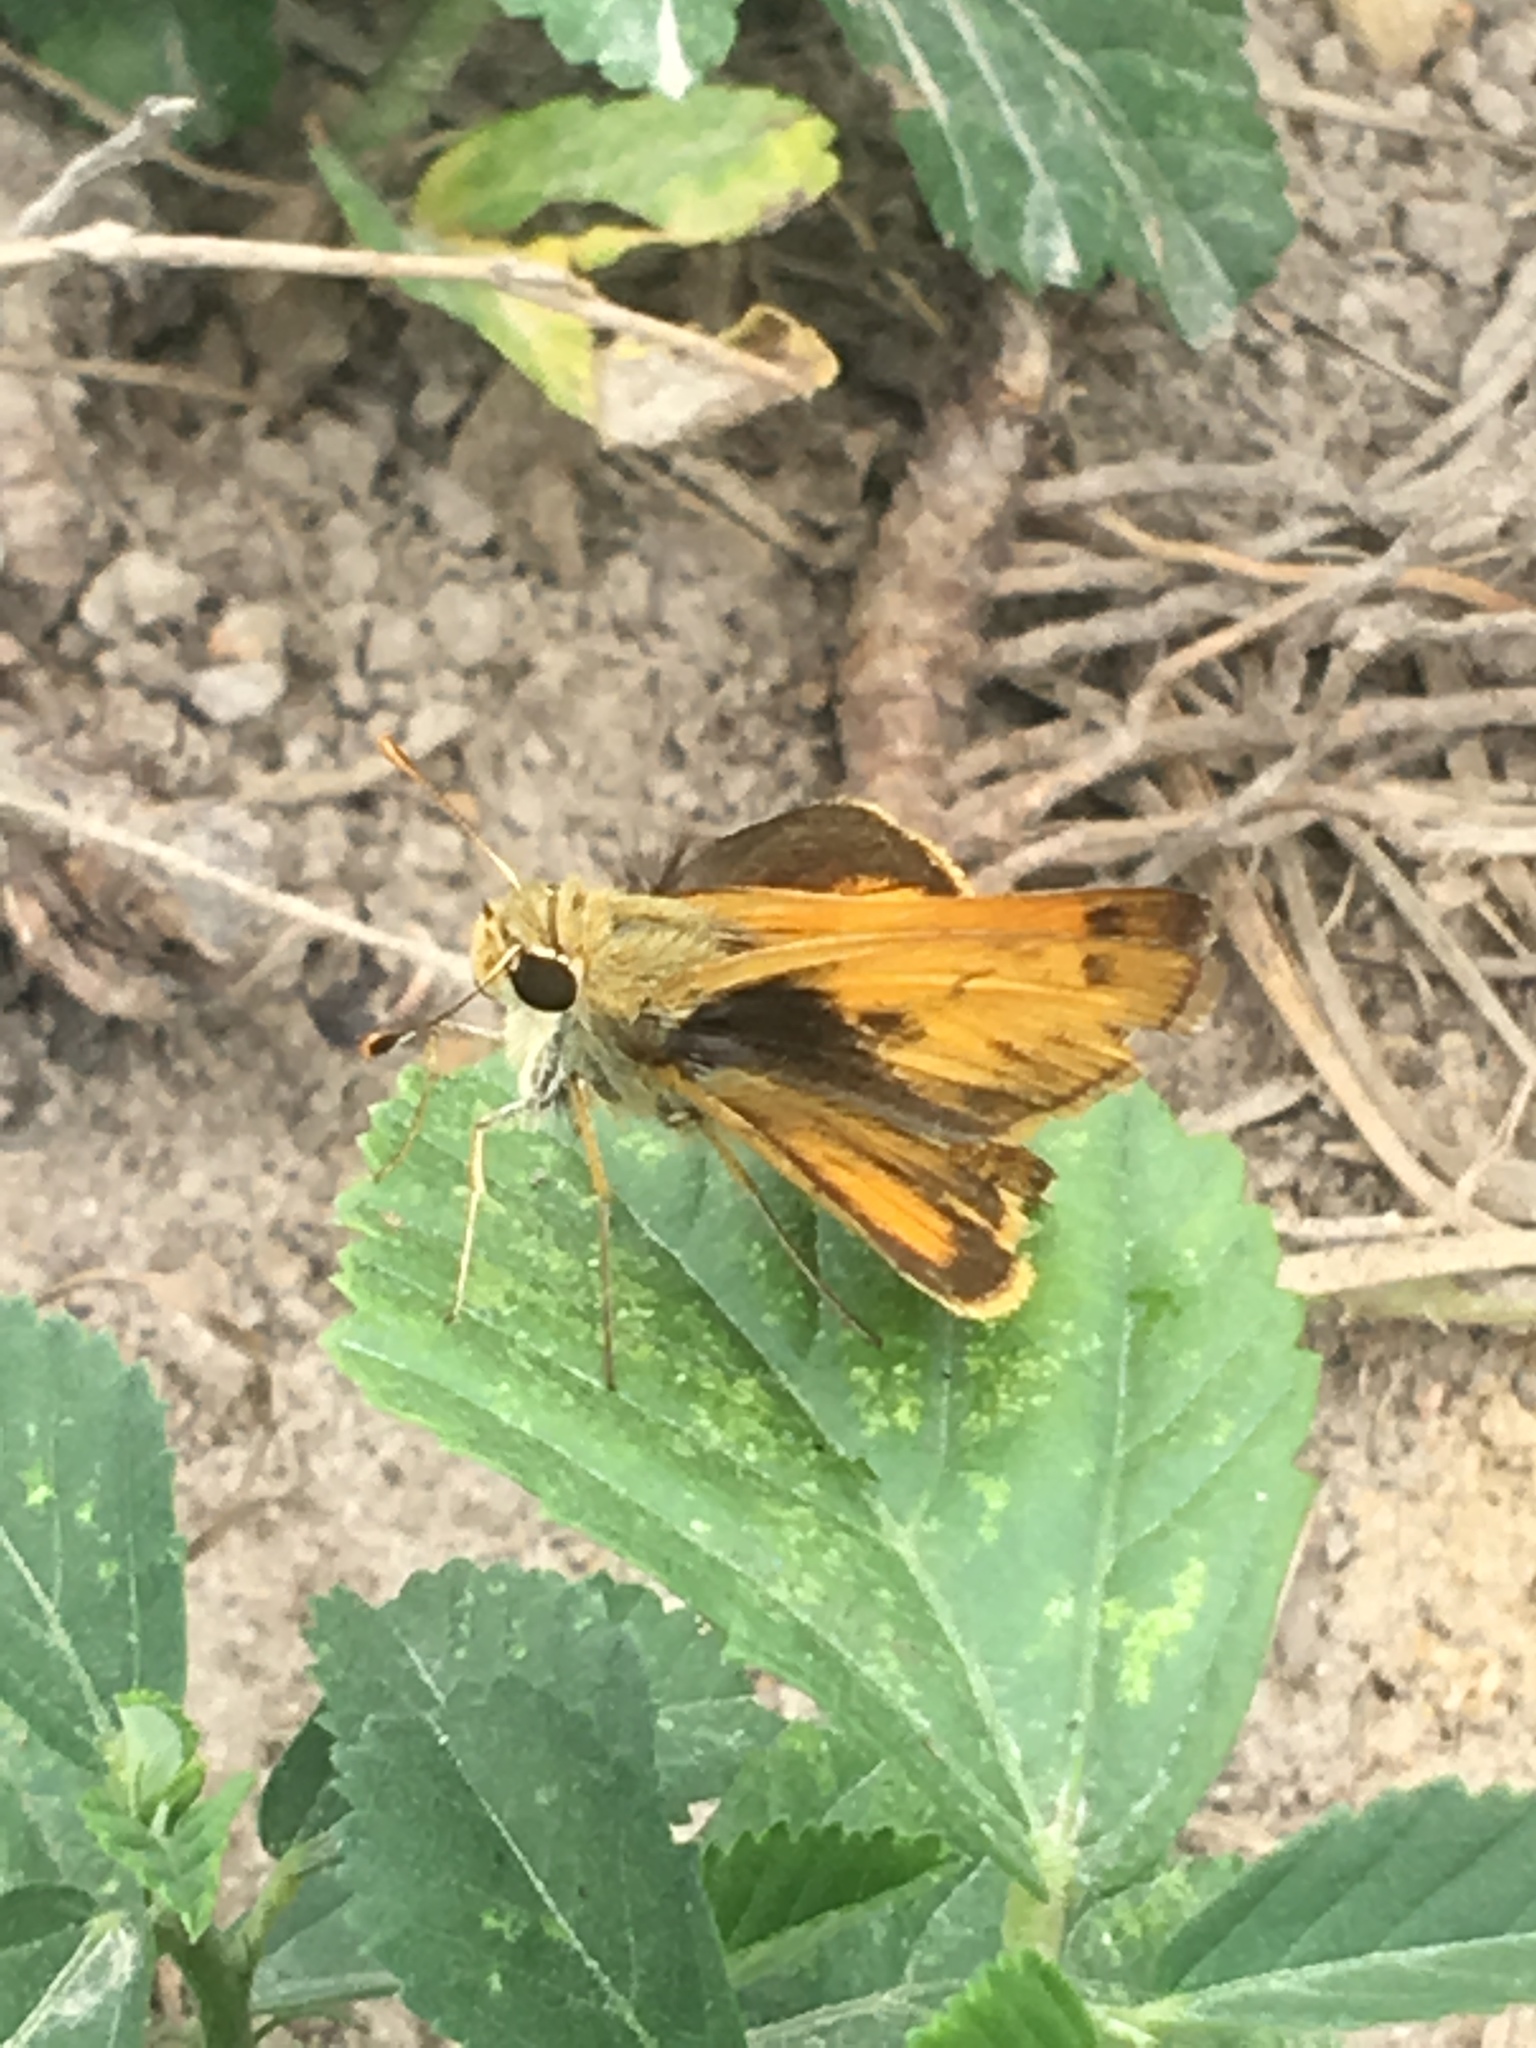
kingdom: Animalia
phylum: Arthropoda
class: Insecta
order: Lepidoptera
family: Hesperiidae
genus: Polites
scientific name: Polites vibex
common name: Whirlabout
